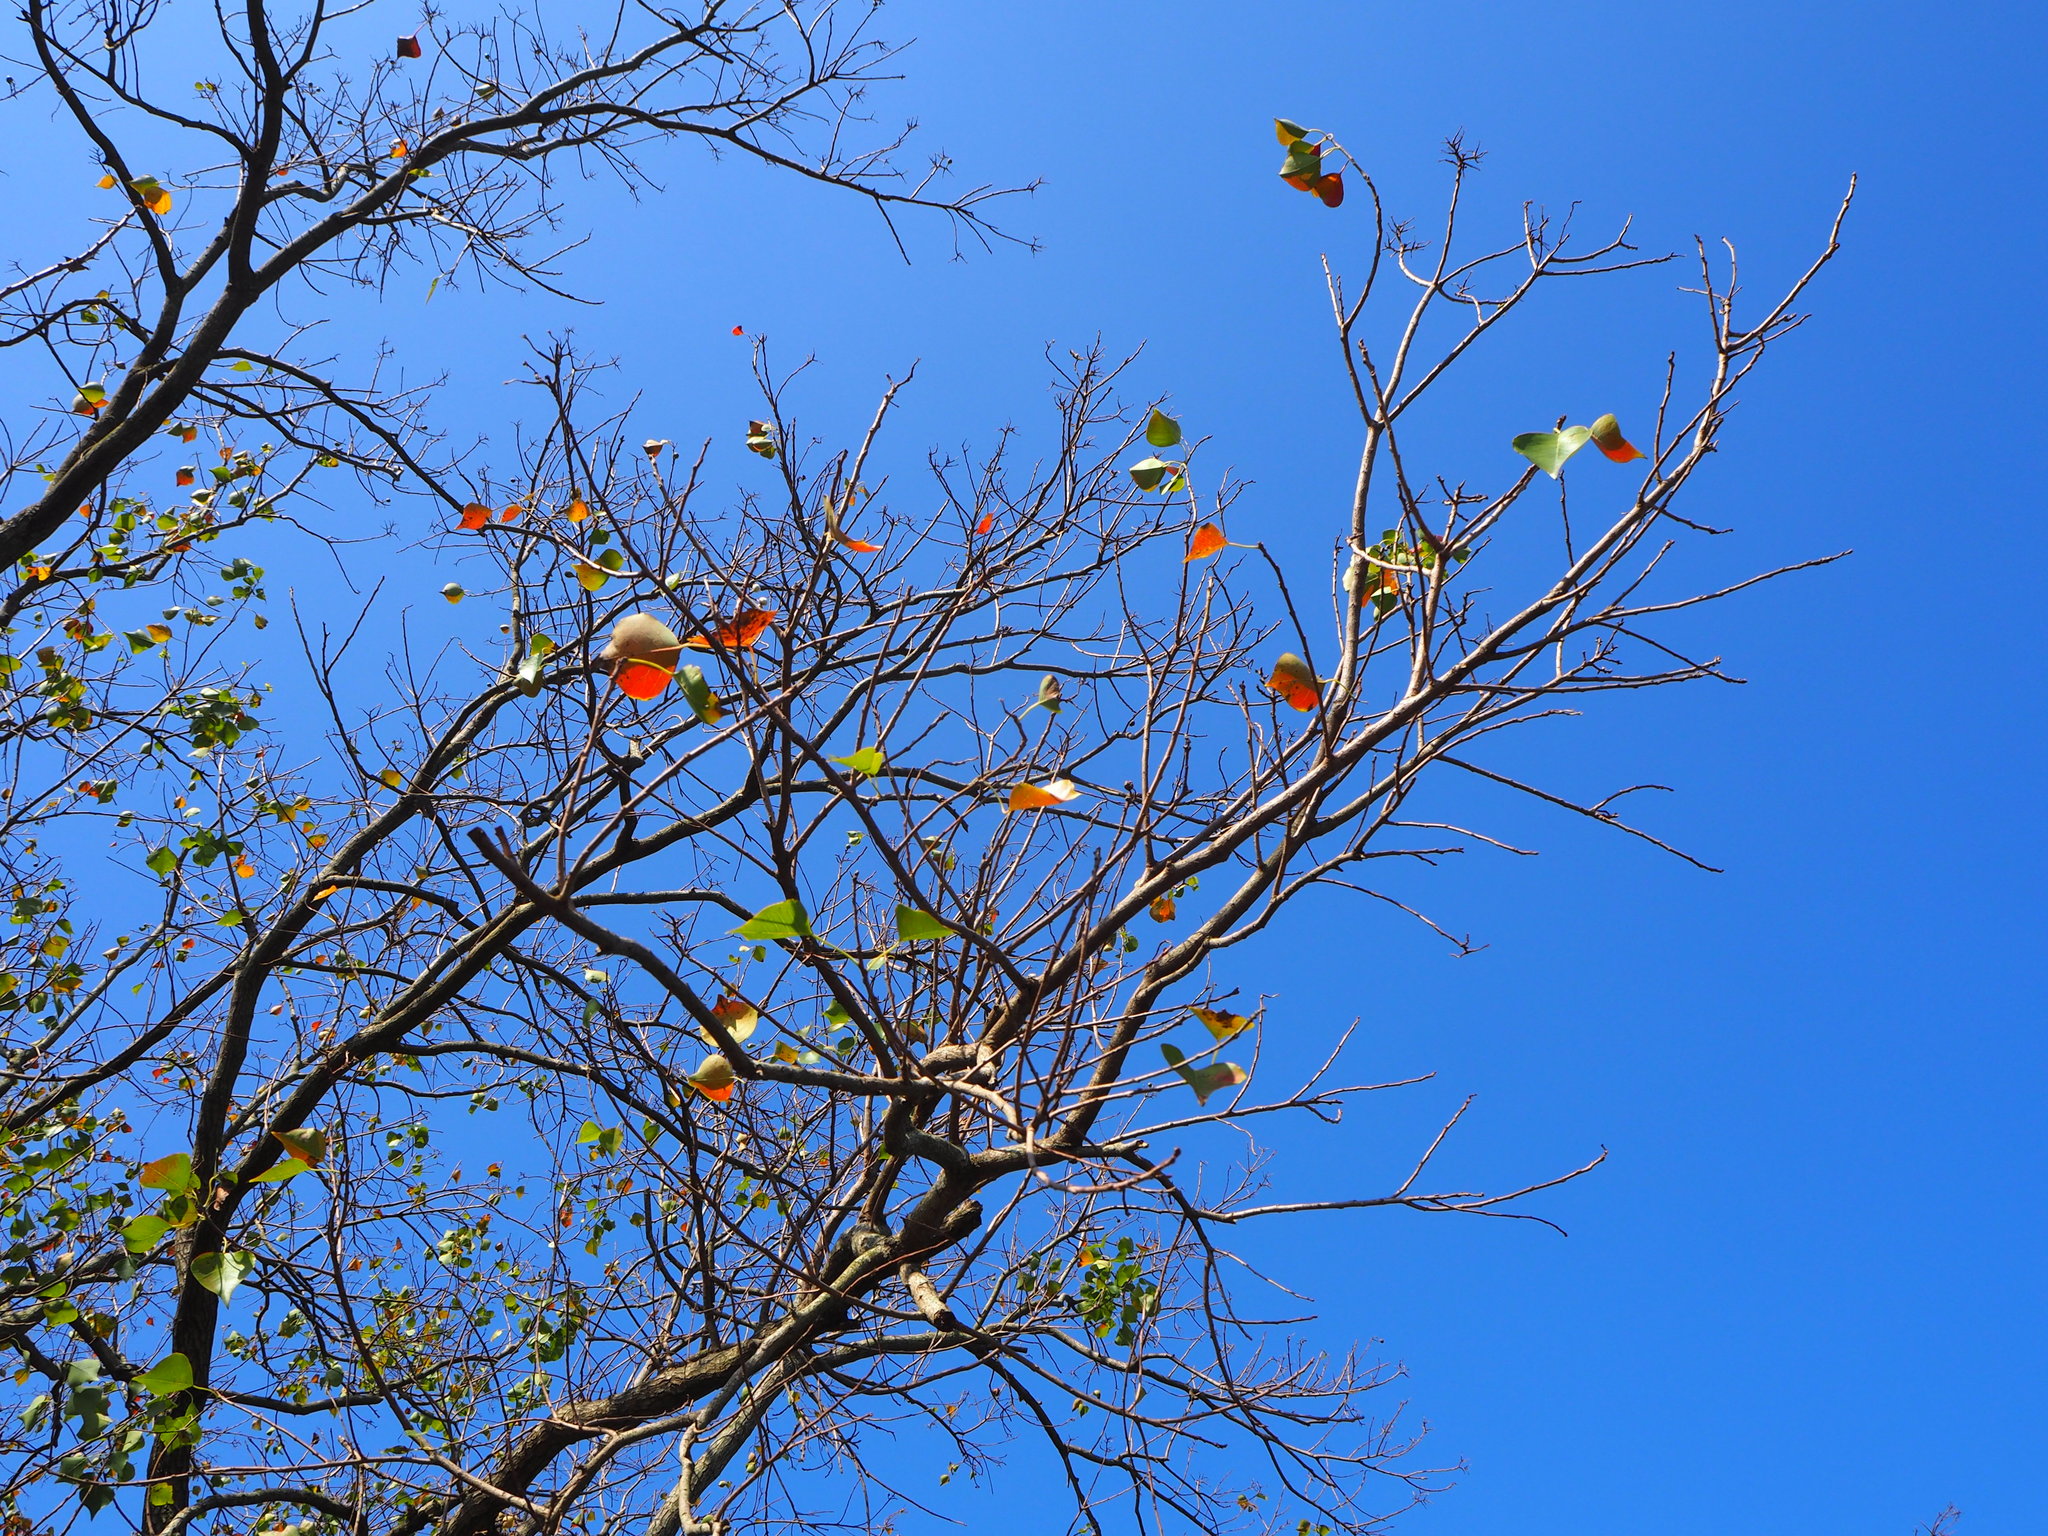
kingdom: Plantae
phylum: Tracheophyta
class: Magnoliopsida
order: Malpighiales
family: Euphorbiaceae
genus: Triadica
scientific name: Triadica sebifera
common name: Chinese tallow
